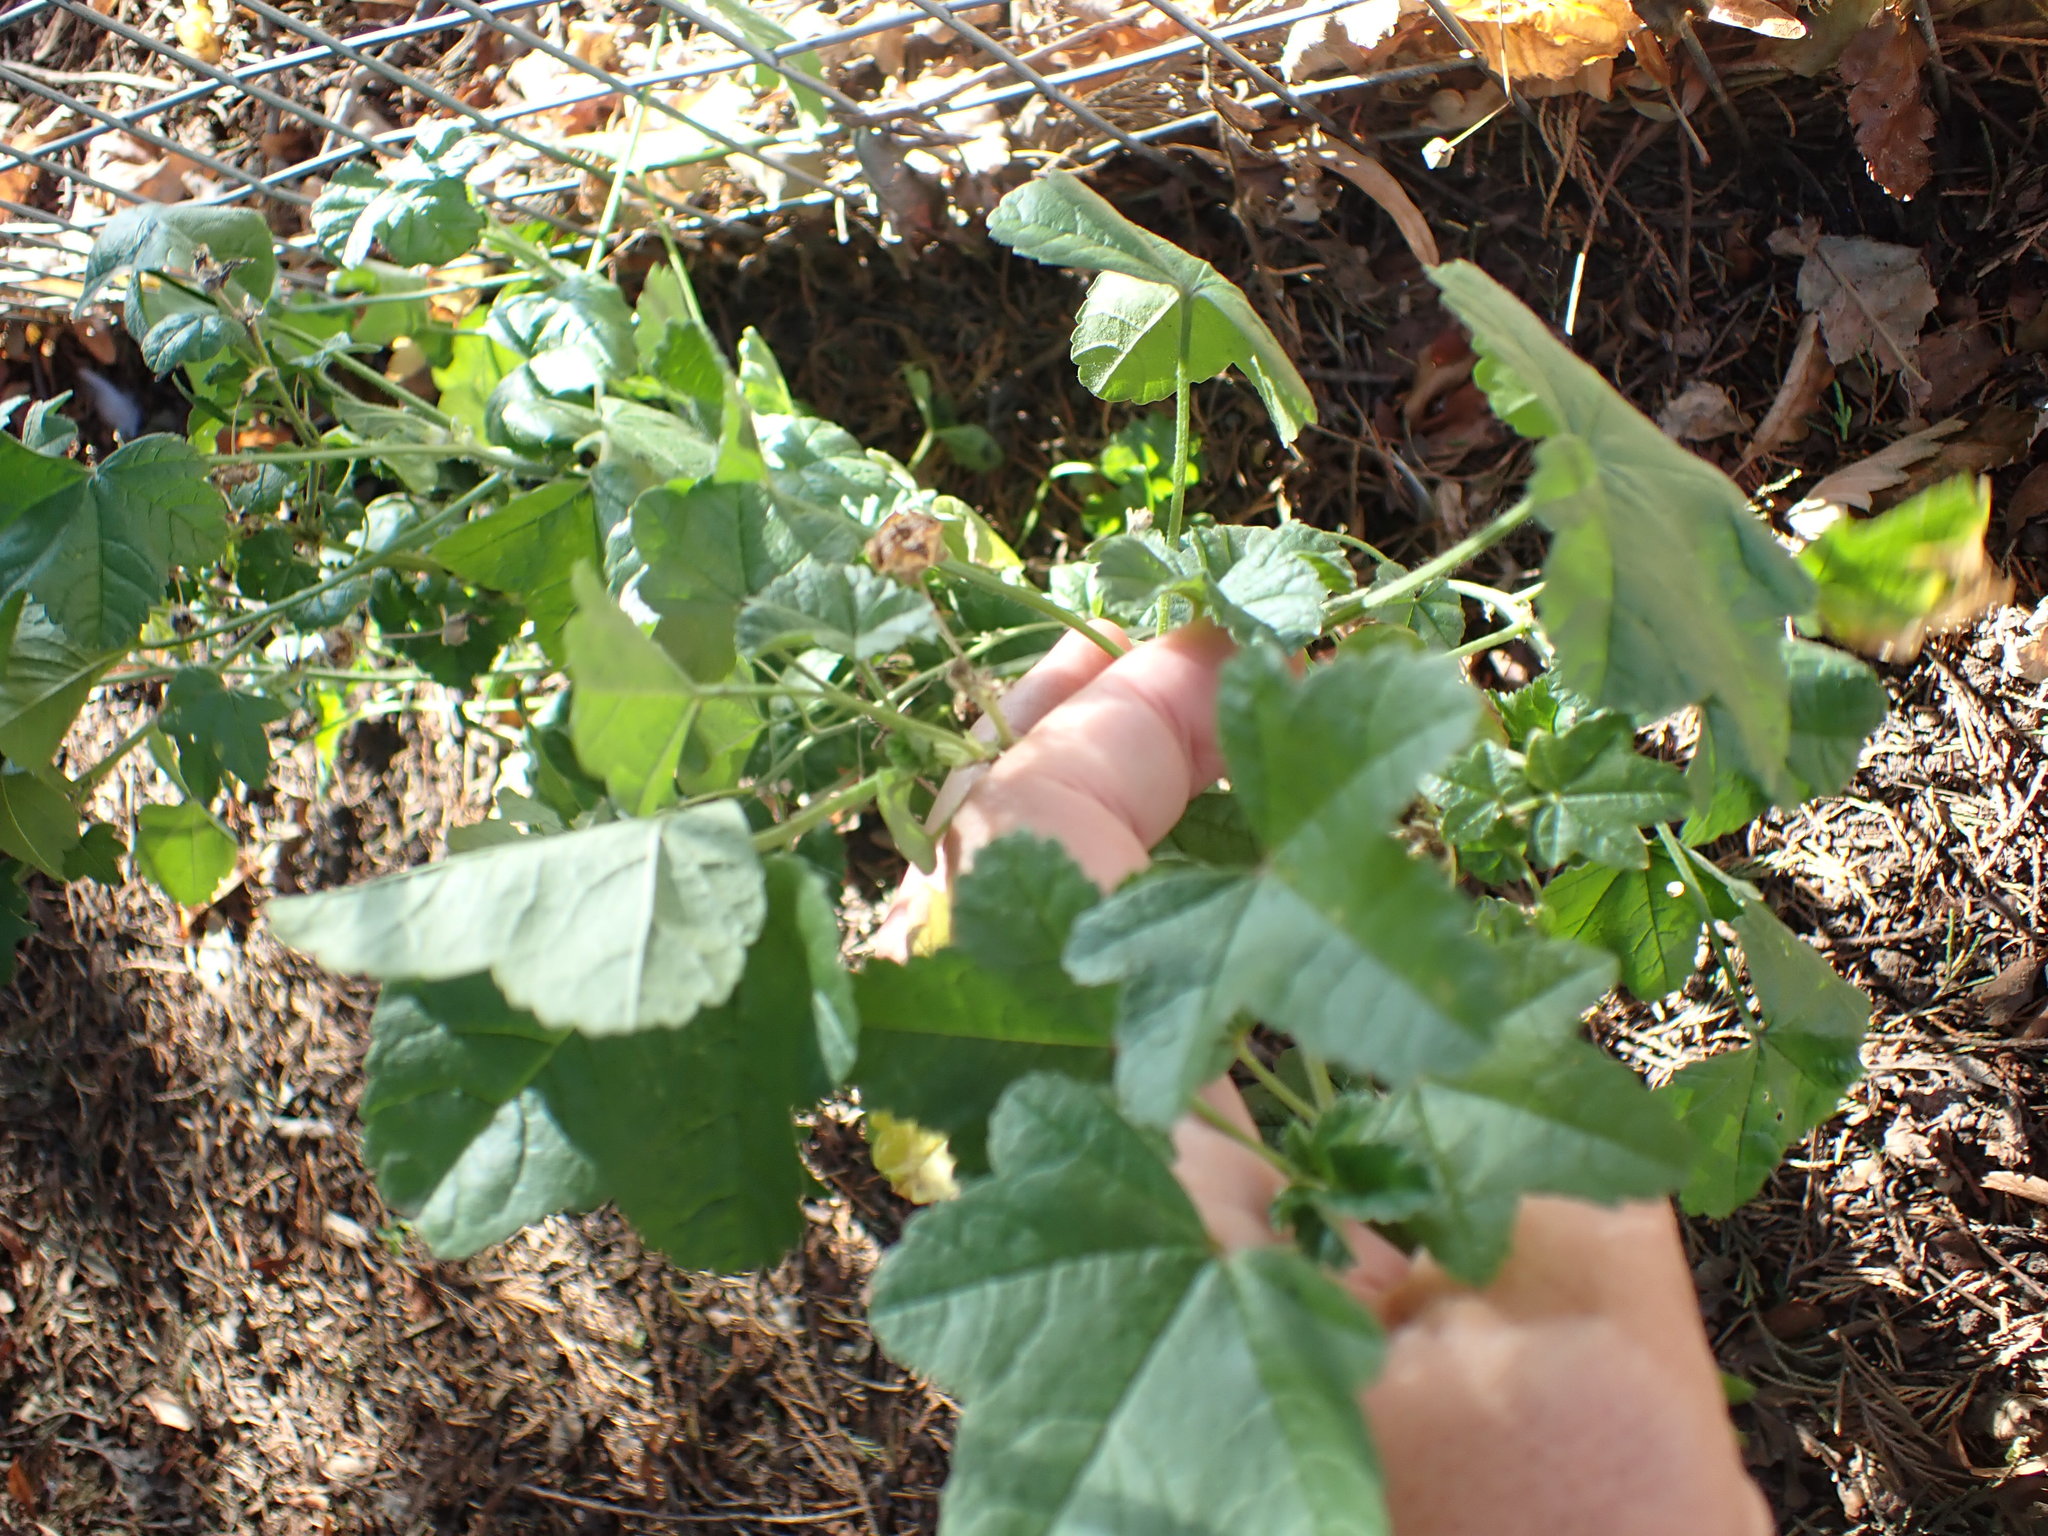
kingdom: Plantae
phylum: Tracheophyta
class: Magnoliopsida
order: Malvales
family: Malvaceae
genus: Malva
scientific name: Malva sylvestris
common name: Common mallow
